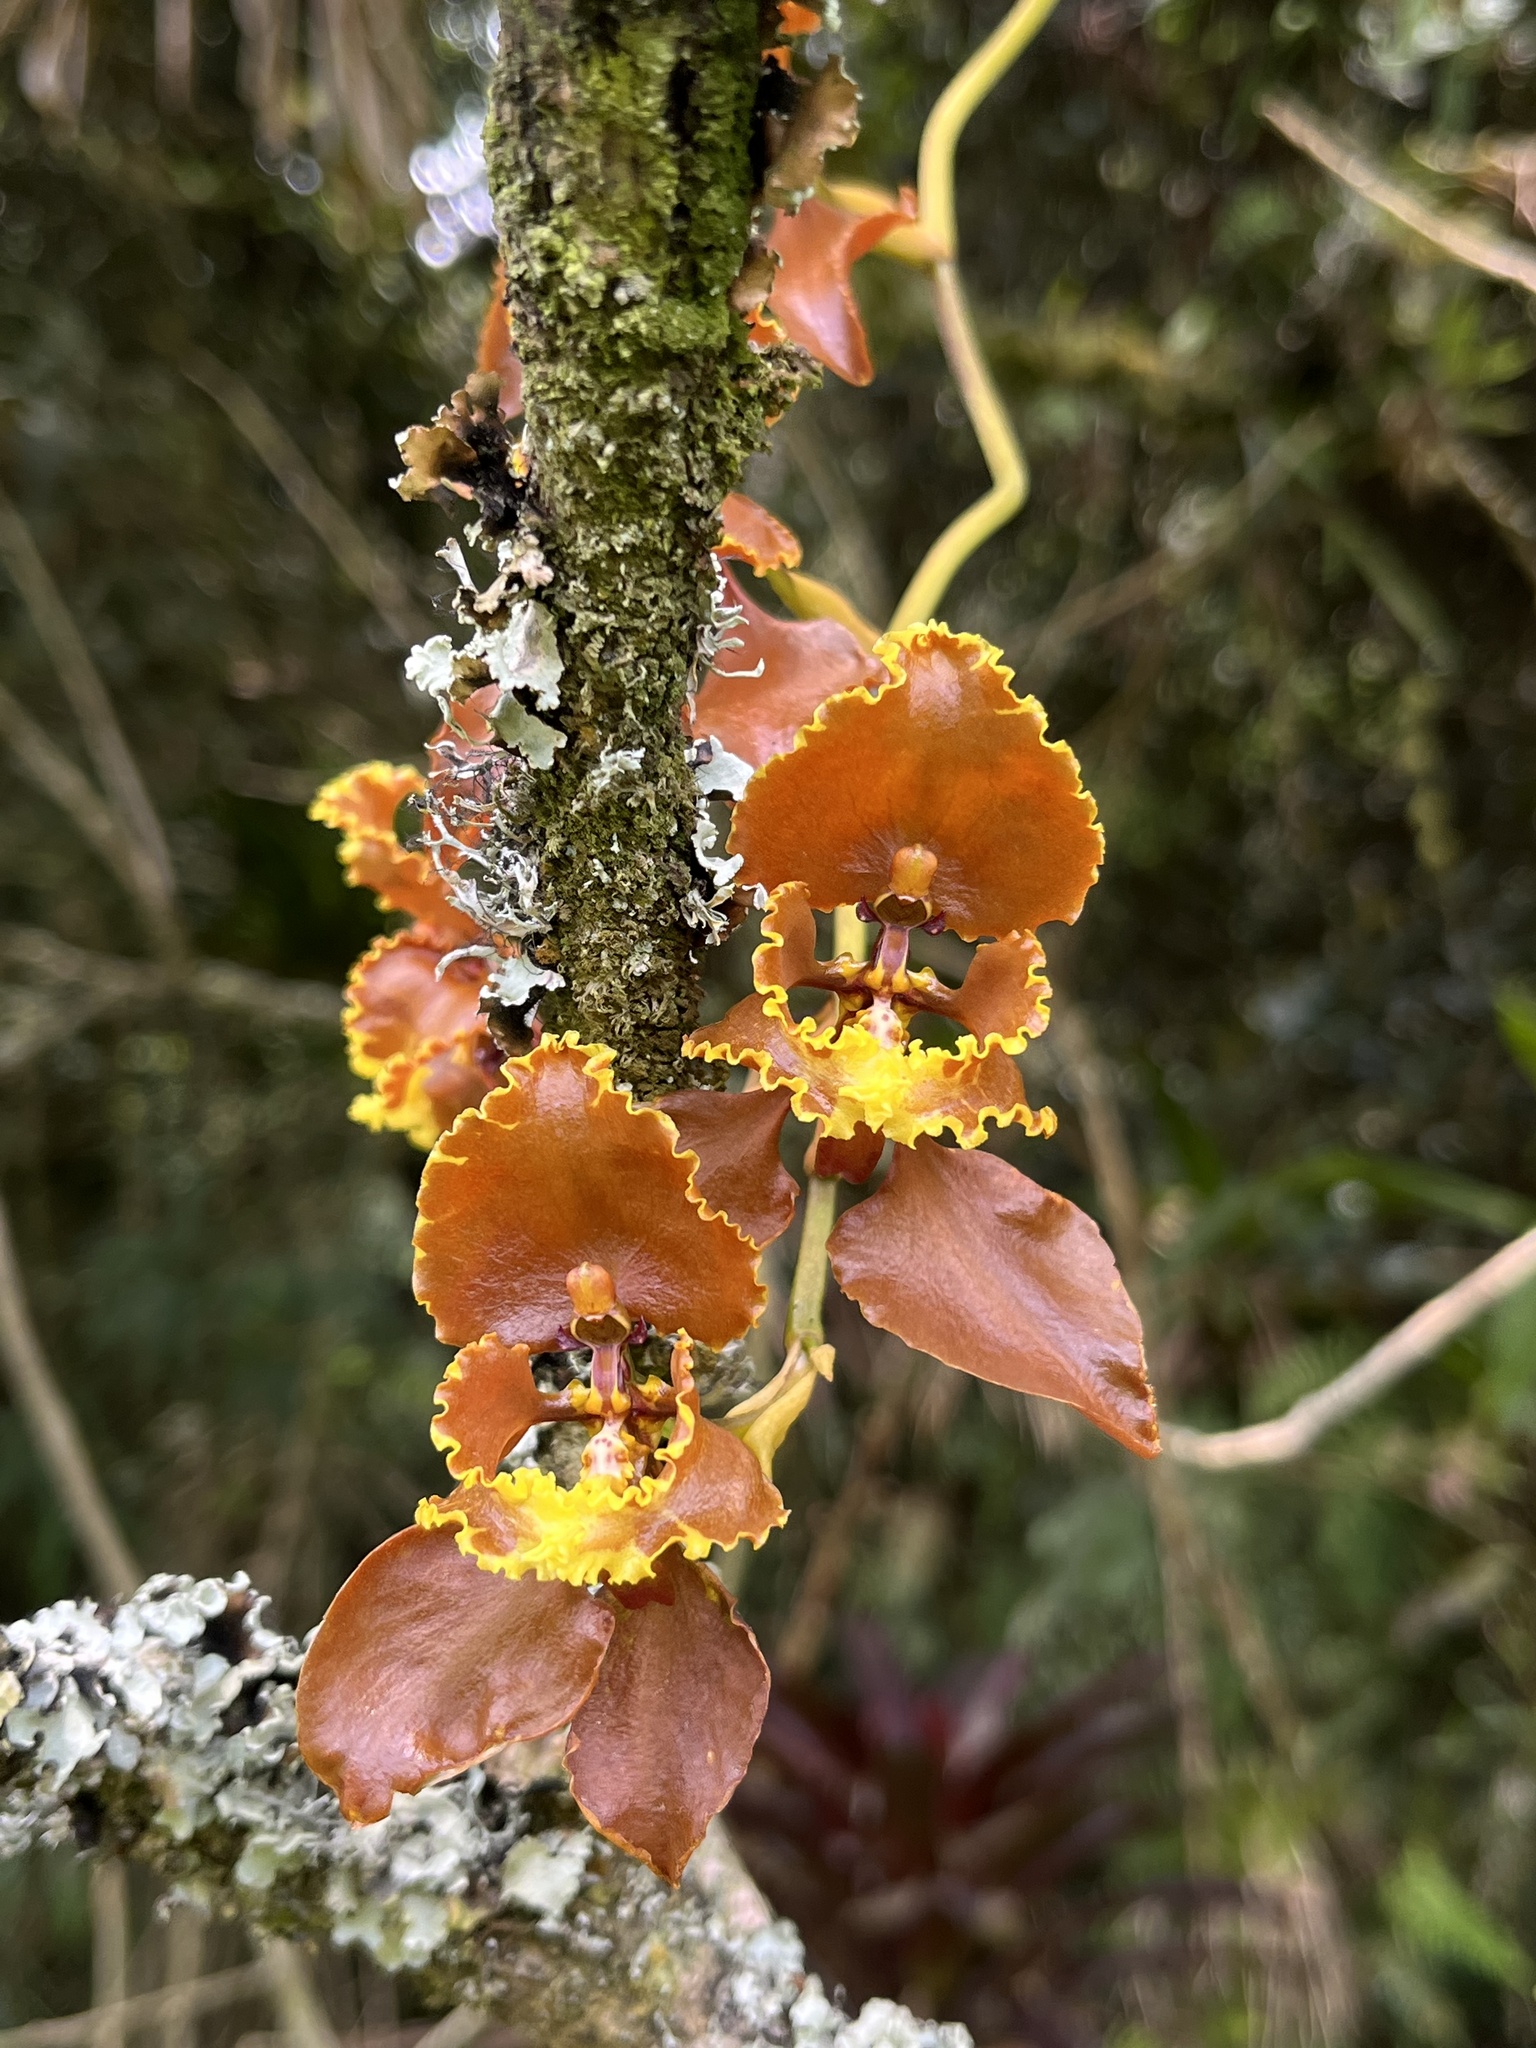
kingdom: Plantae
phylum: Tracheophyta
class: Liliopsida
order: Asparagales
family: Orchidaceae
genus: Cyrtochilum
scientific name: Cyrtochilum baldeviamae
